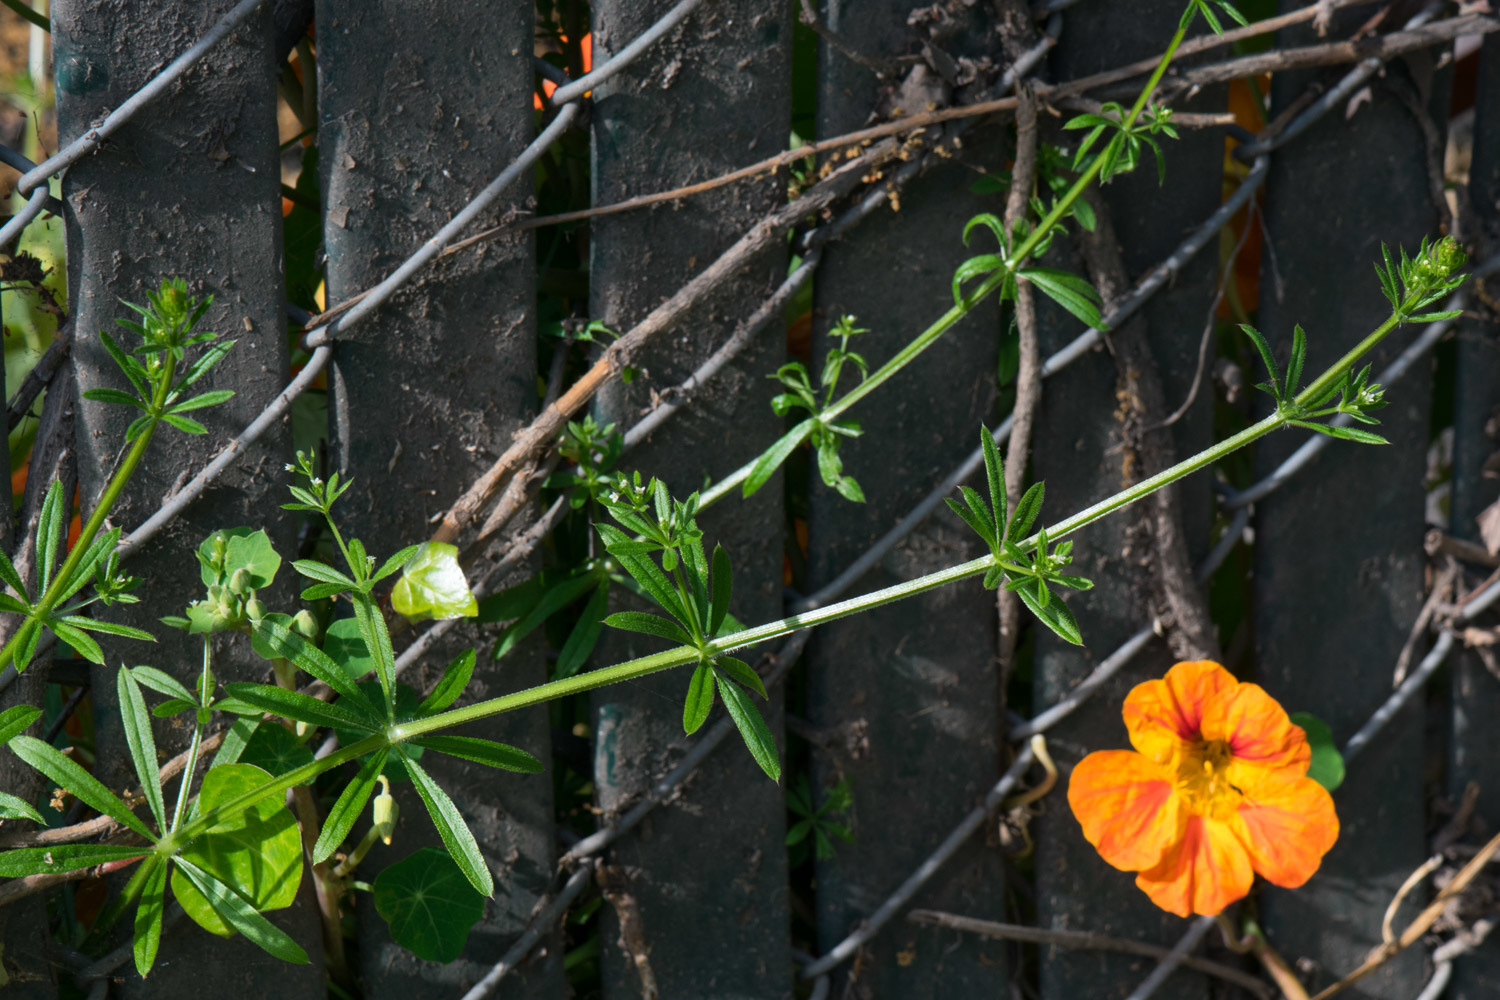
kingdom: Plantae
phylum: Tracheophyta
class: Magnoliopsida
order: Gentianales
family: Rubiaceae
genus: Galium
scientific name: Galium aparine
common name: Cleavers
